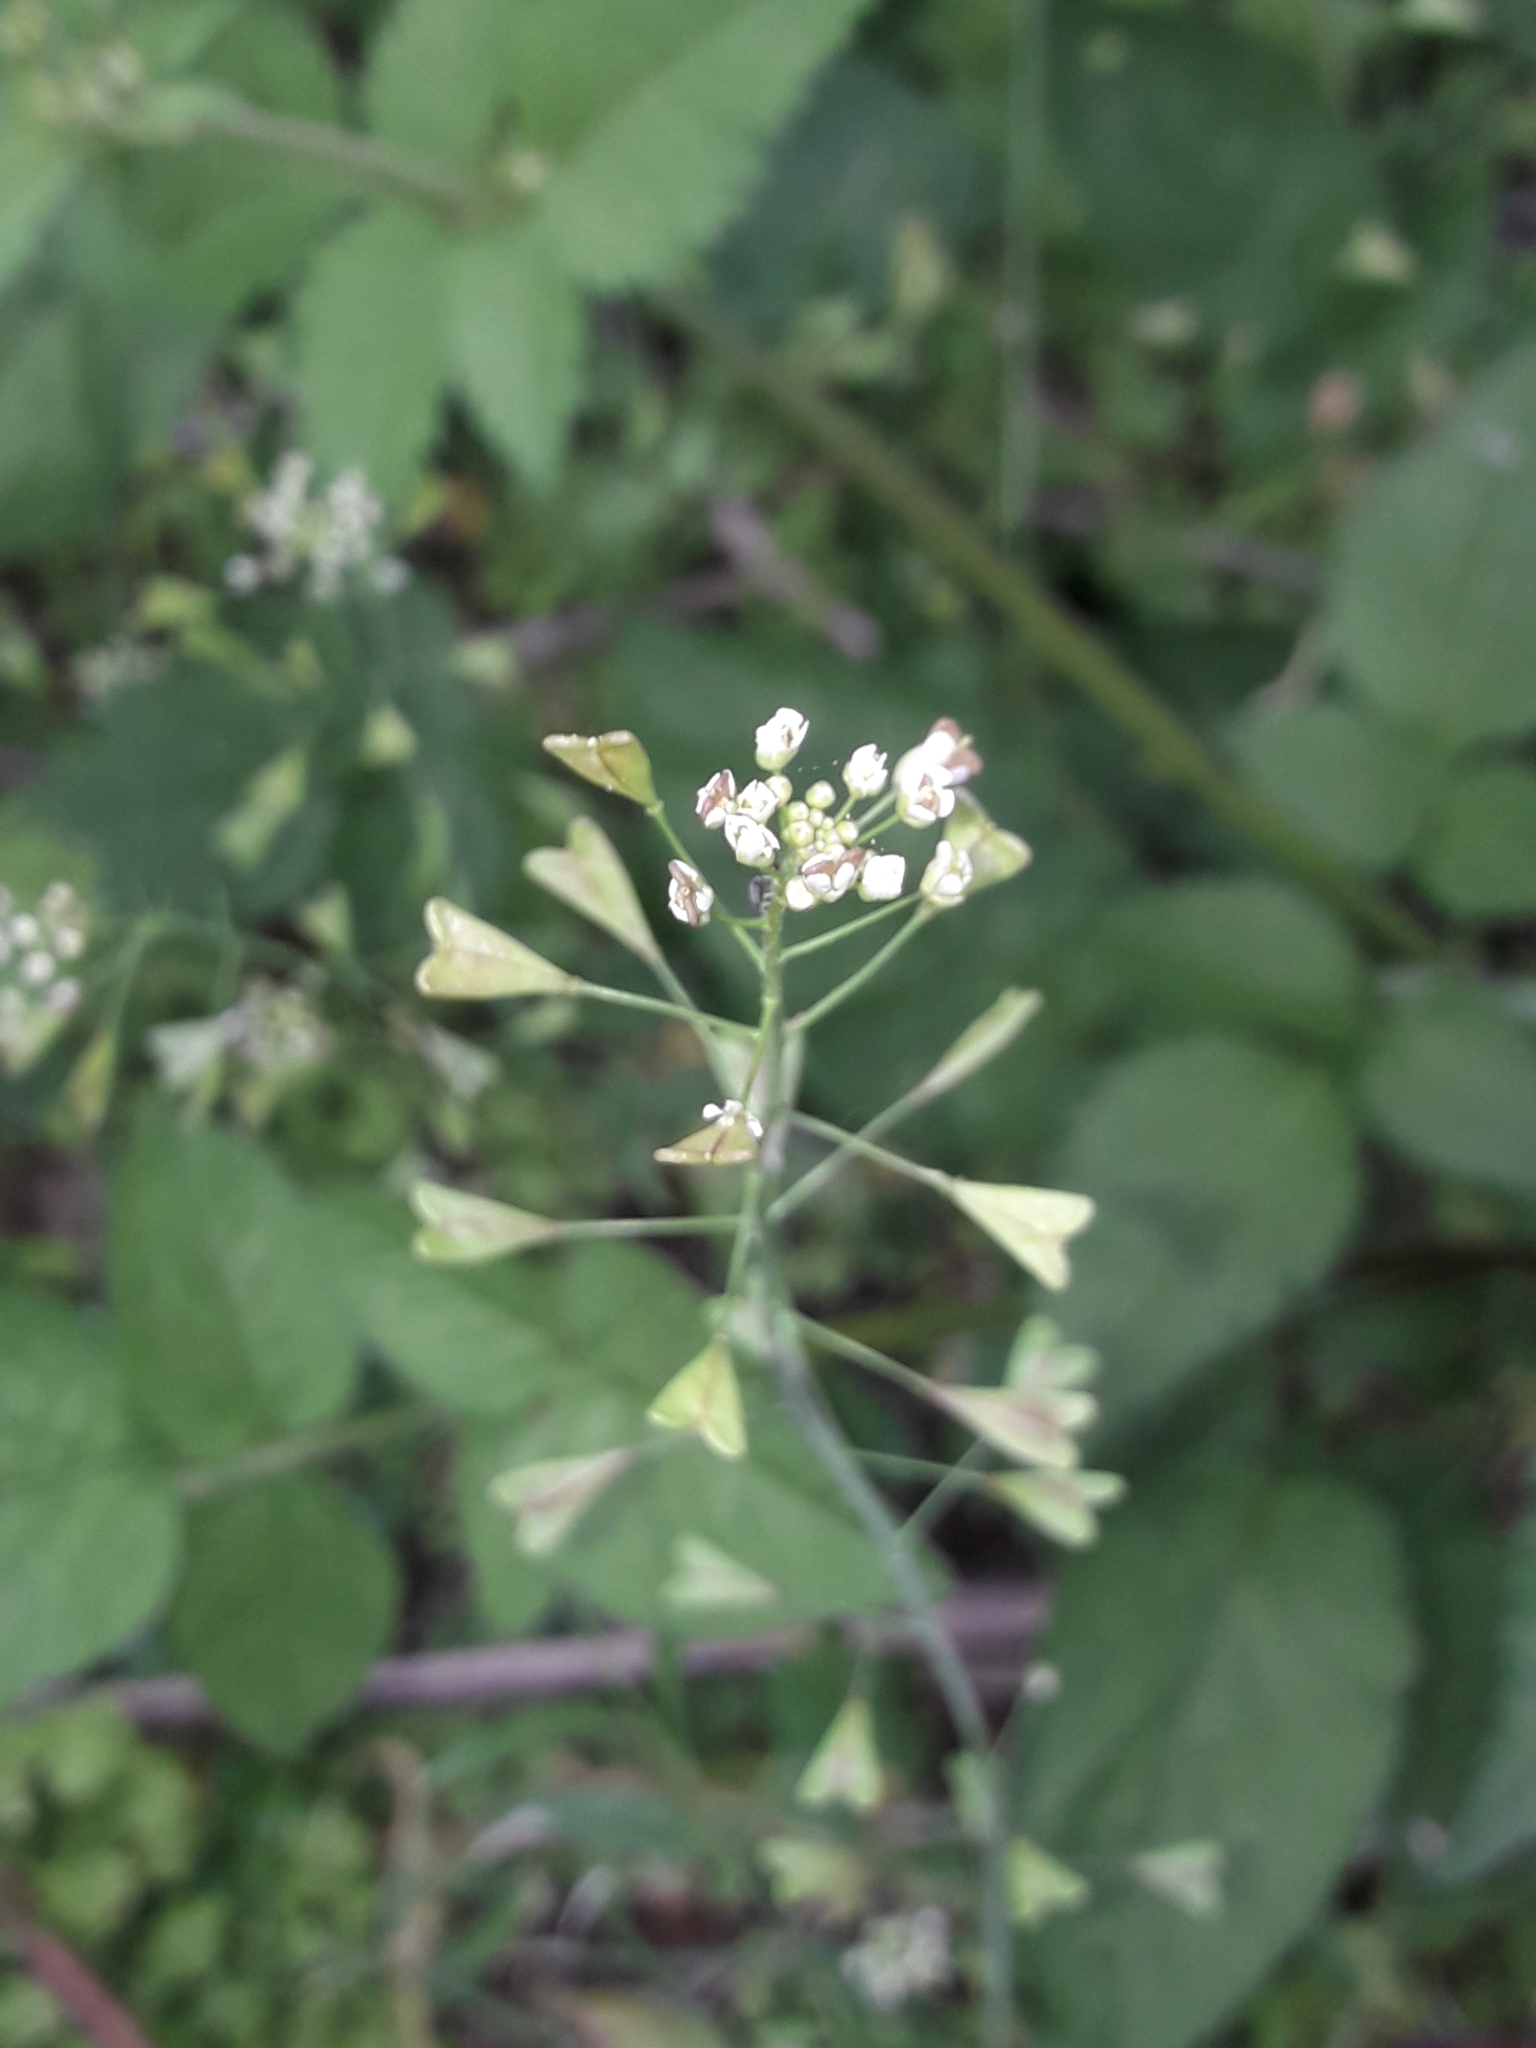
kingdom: Plantae
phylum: Tracheophyta
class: Magnoliopsida
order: Brassicales
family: Brassicaceae
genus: Capsella
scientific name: Capsella bursa-pastoris
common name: Shepherd's purse
